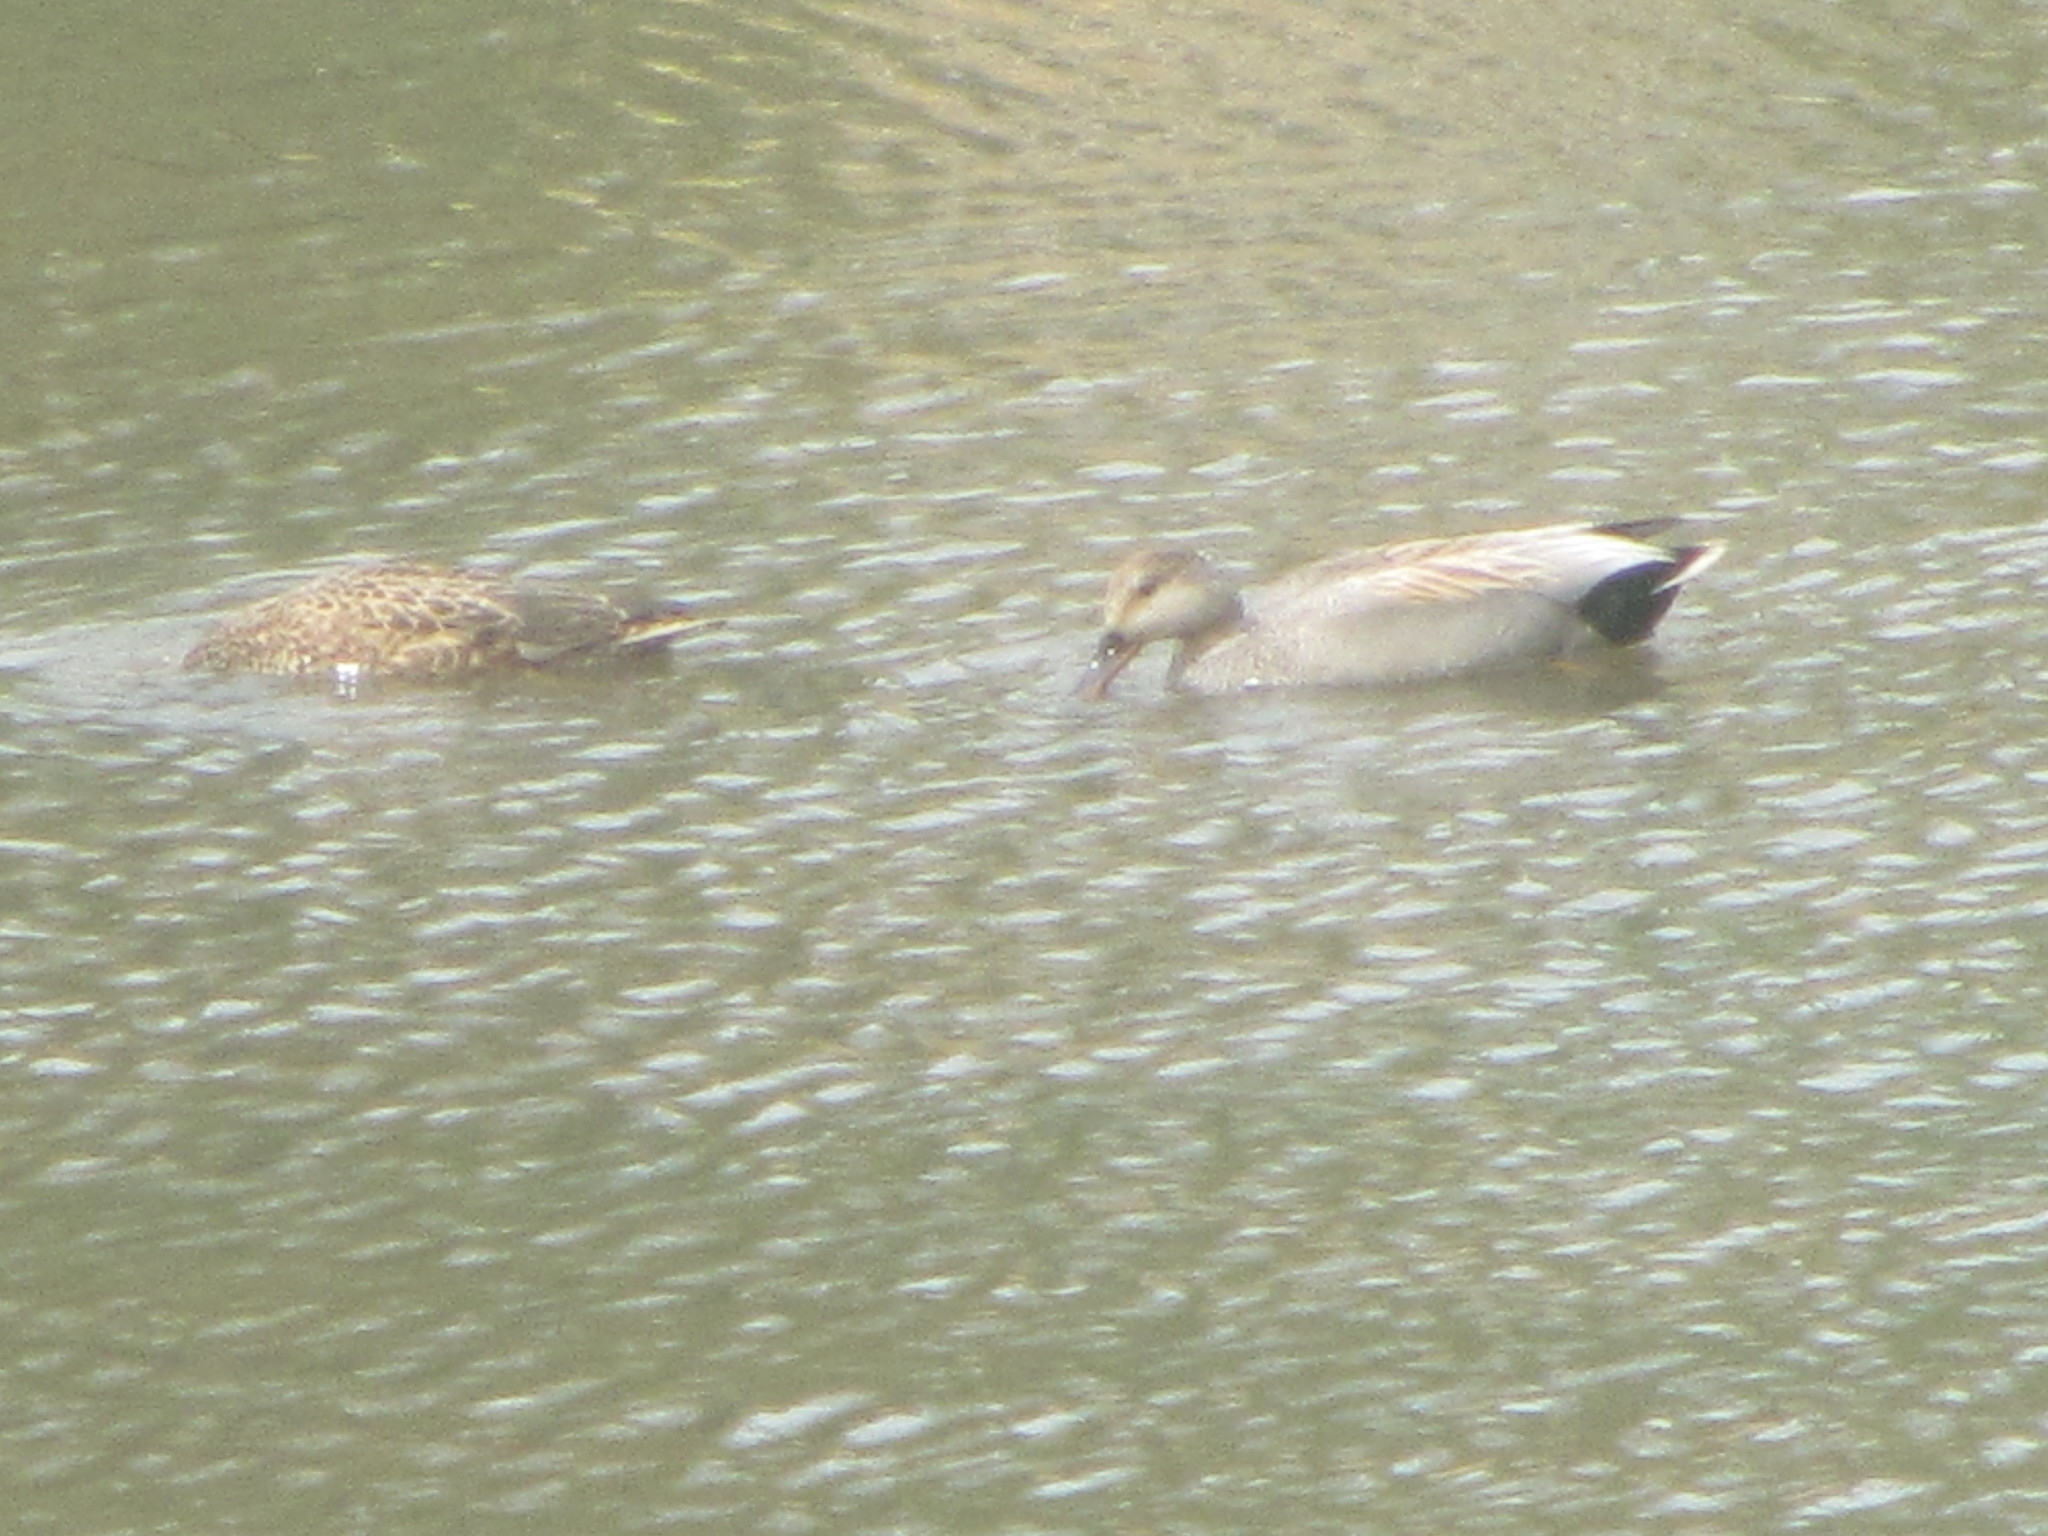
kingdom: Animalia
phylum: Chordata
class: Aves
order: Anseriformes
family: Anatidae
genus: Mareca
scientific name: Mareca strepera
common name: Gadwall
